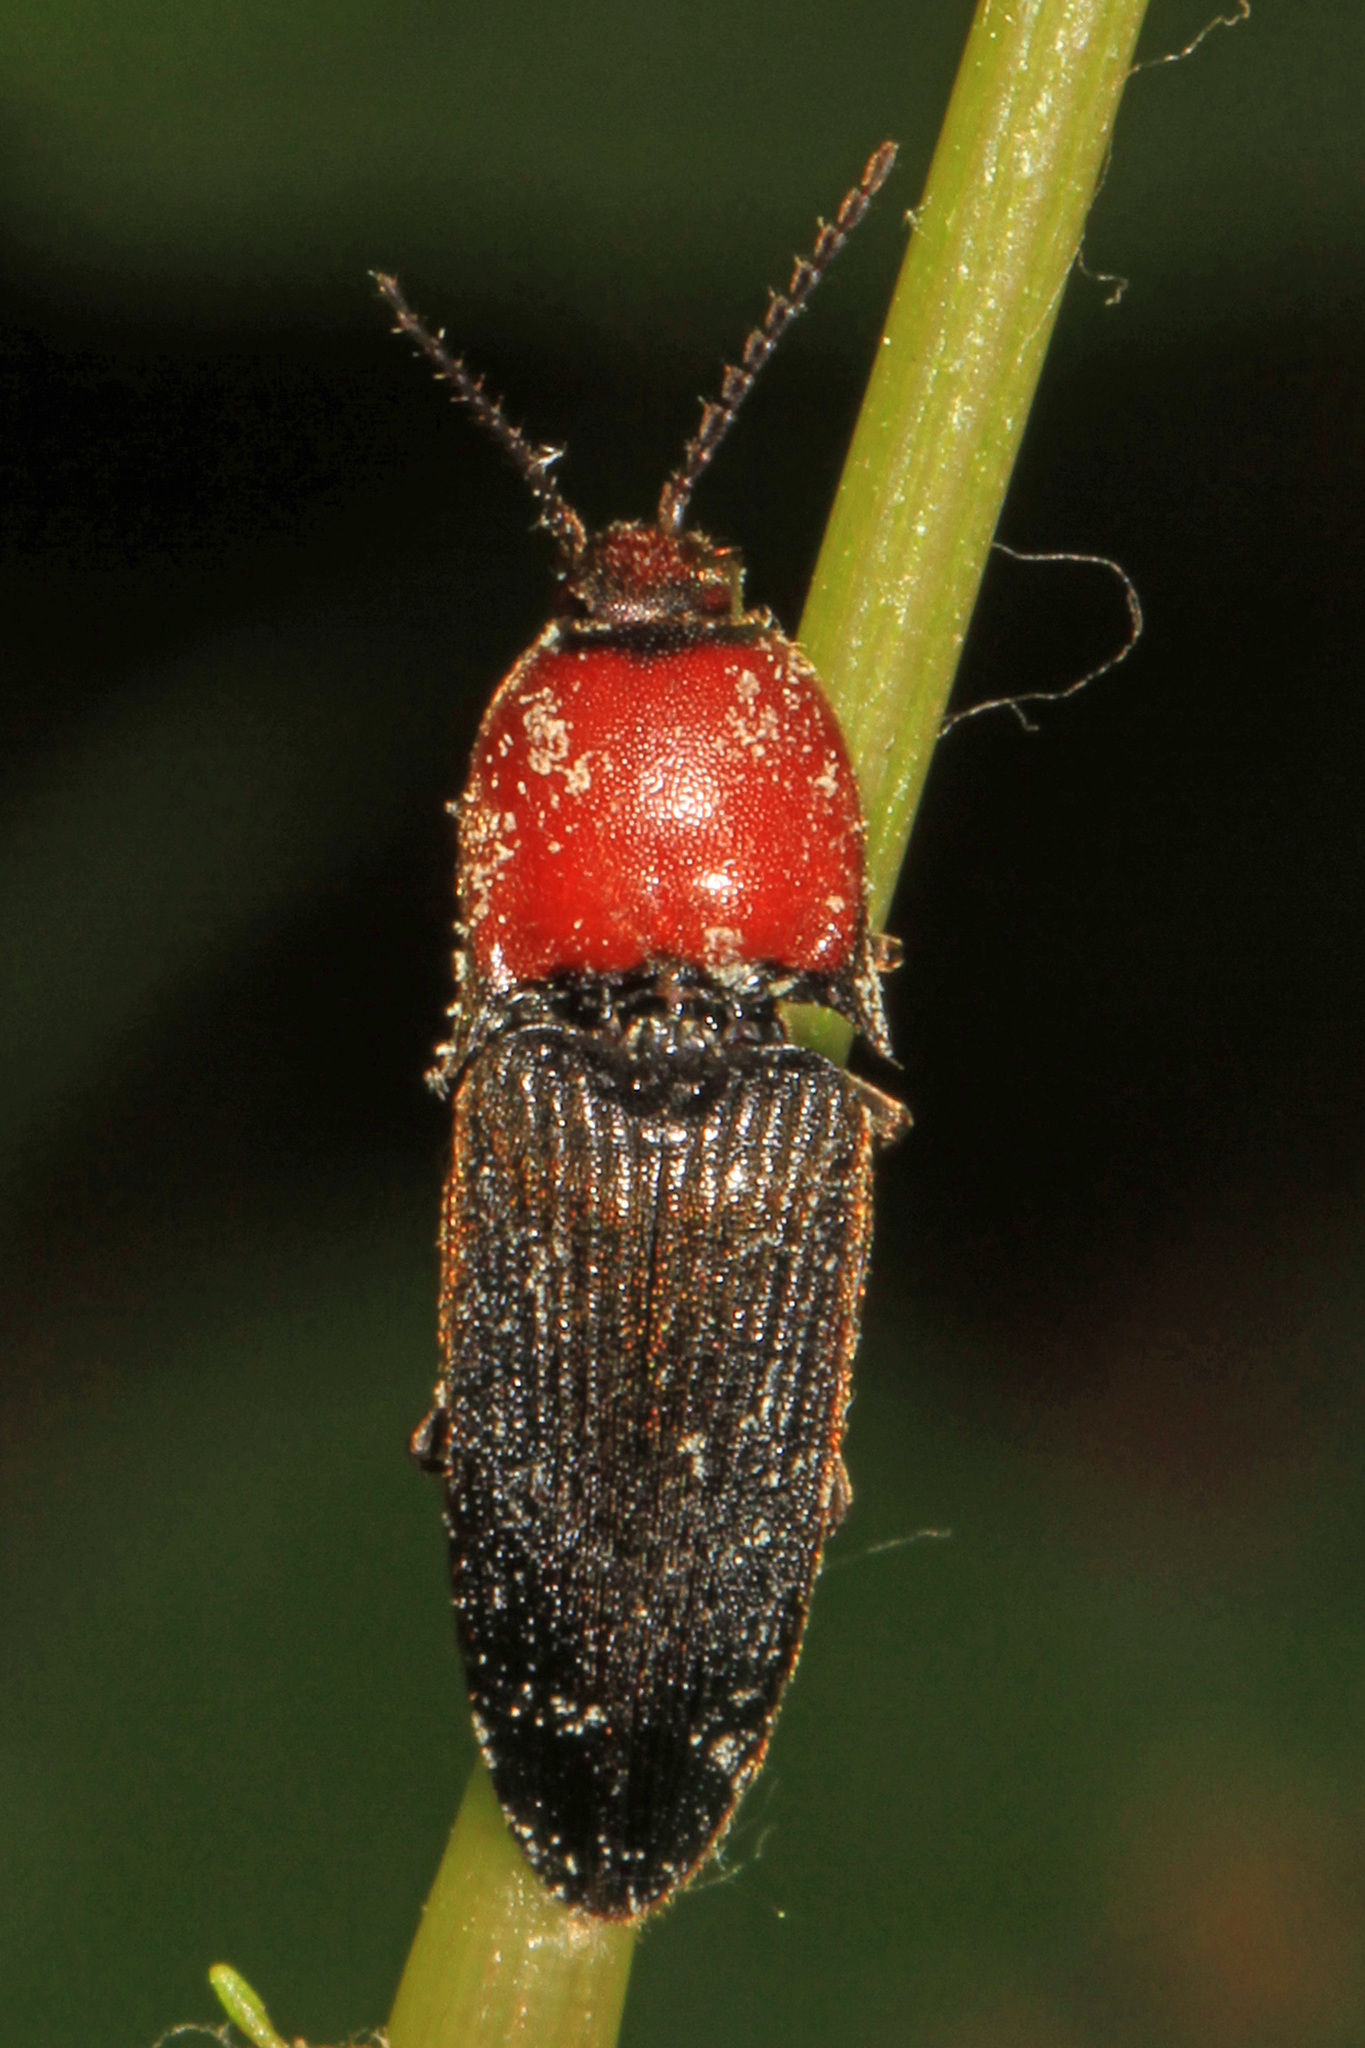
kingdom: Animalia
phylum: Arthropoda
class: Insecta
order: Coleoptera
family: Elateridae
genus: Ampedus
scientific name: Ampedus rubricollis
